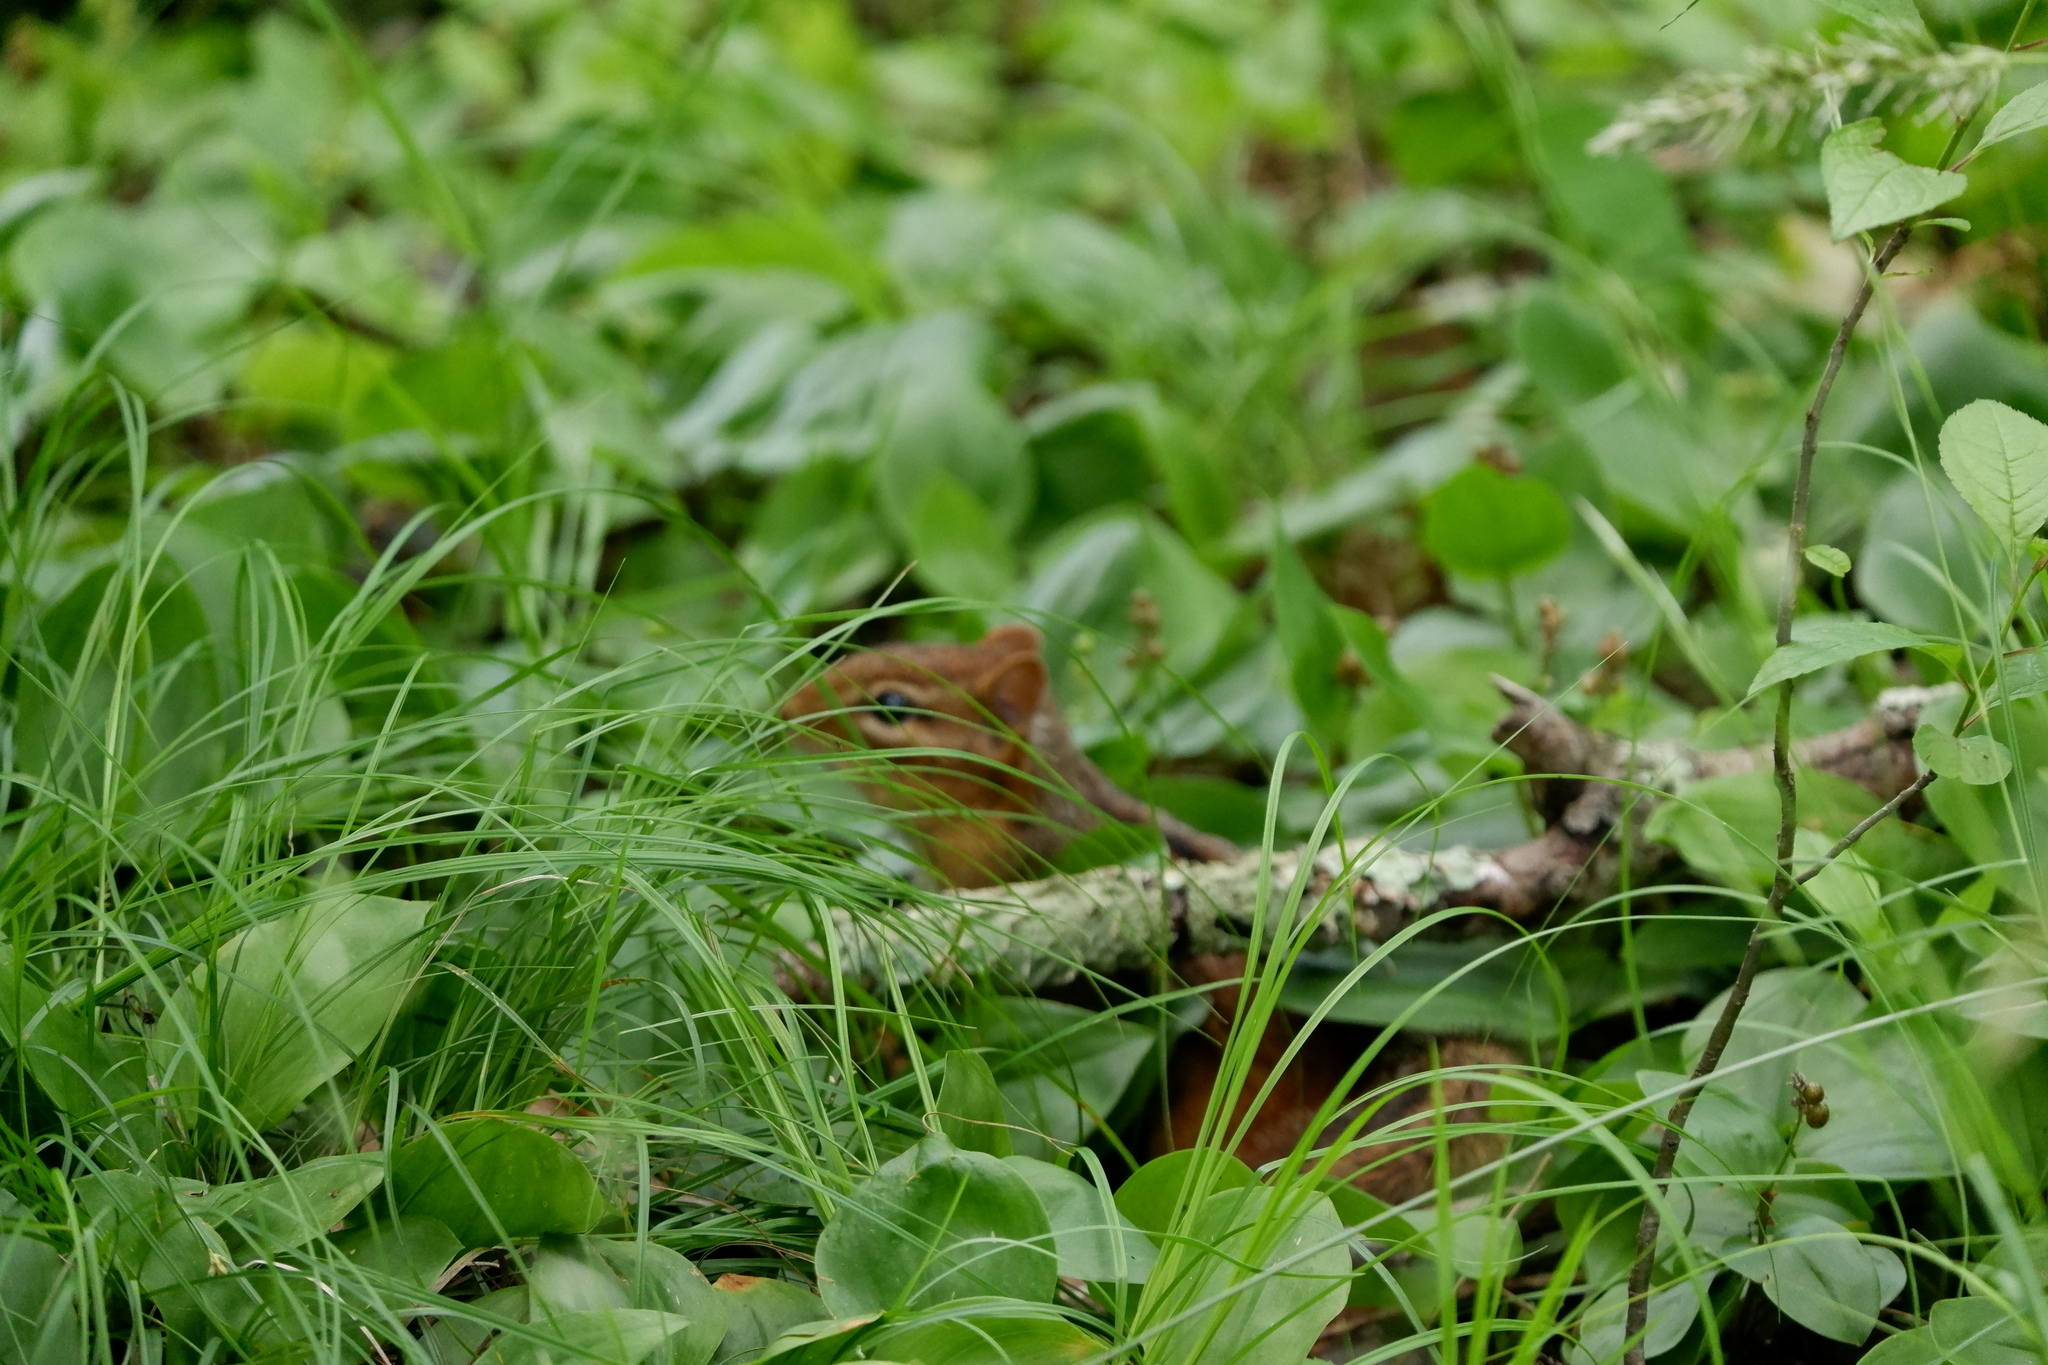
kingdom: Animalia
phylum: Chordata
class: Mammalia
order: Rodentia
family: Sciuridae
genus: Tamias
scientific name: Tamias striatus
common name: Eastern chipmunk
